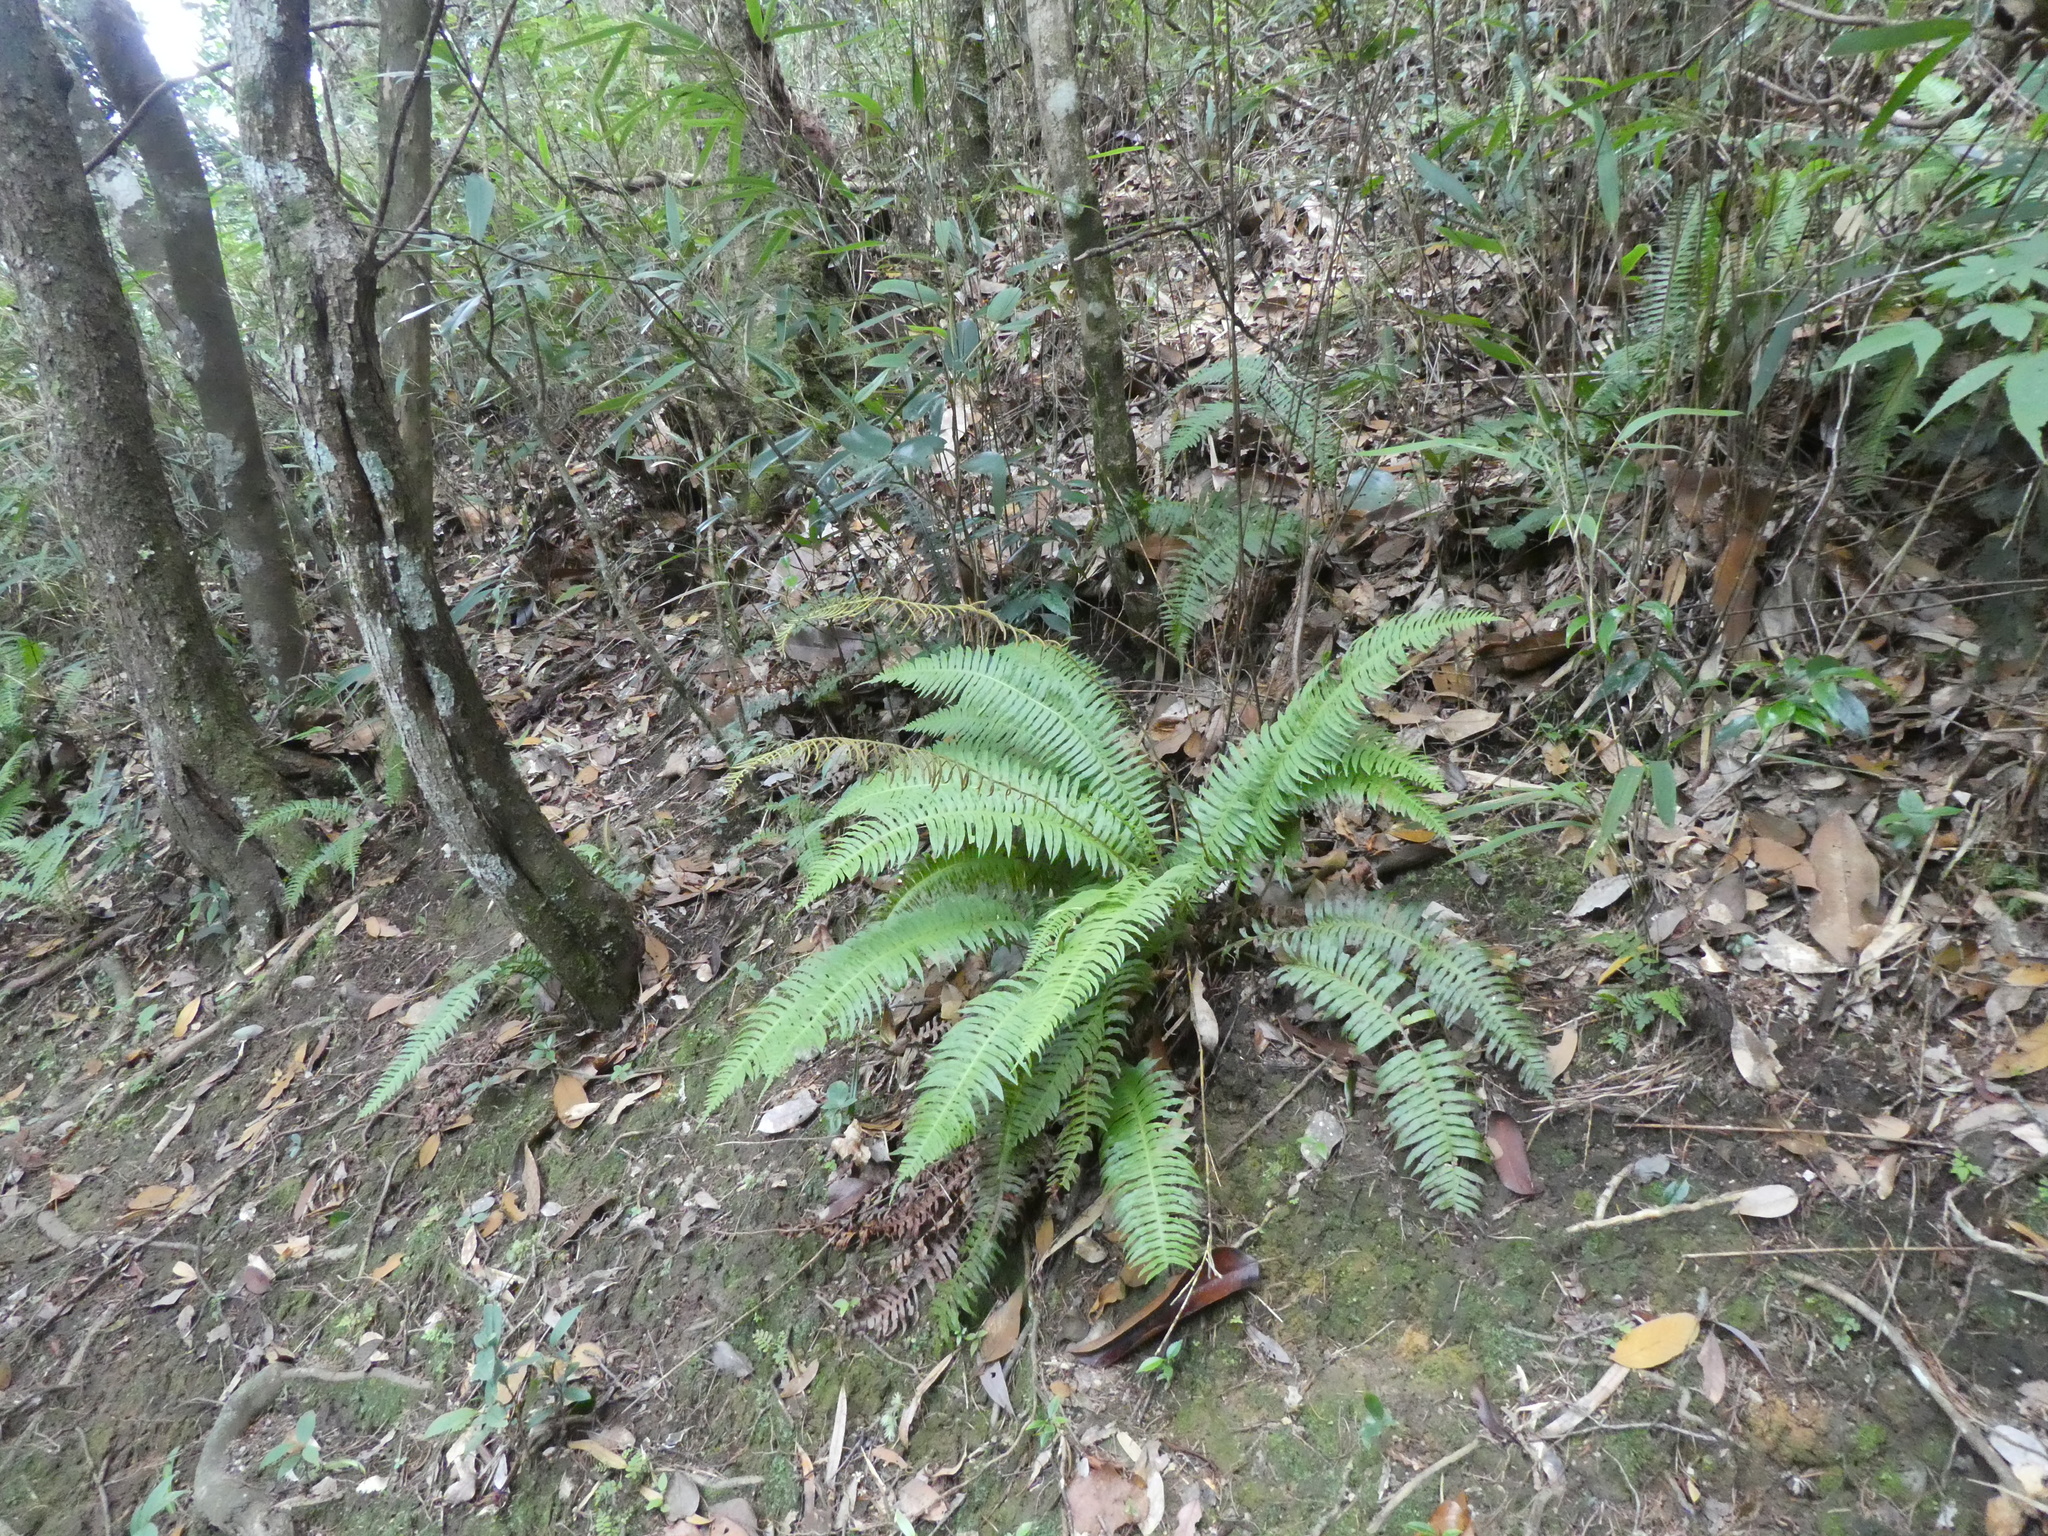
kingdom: Plantae
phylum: Tracheophyta
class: Polypodiopsida
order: Cyatheales
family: Plagiogyriaceae
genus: Plagiogyria
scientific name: Plagiogyria falcata
